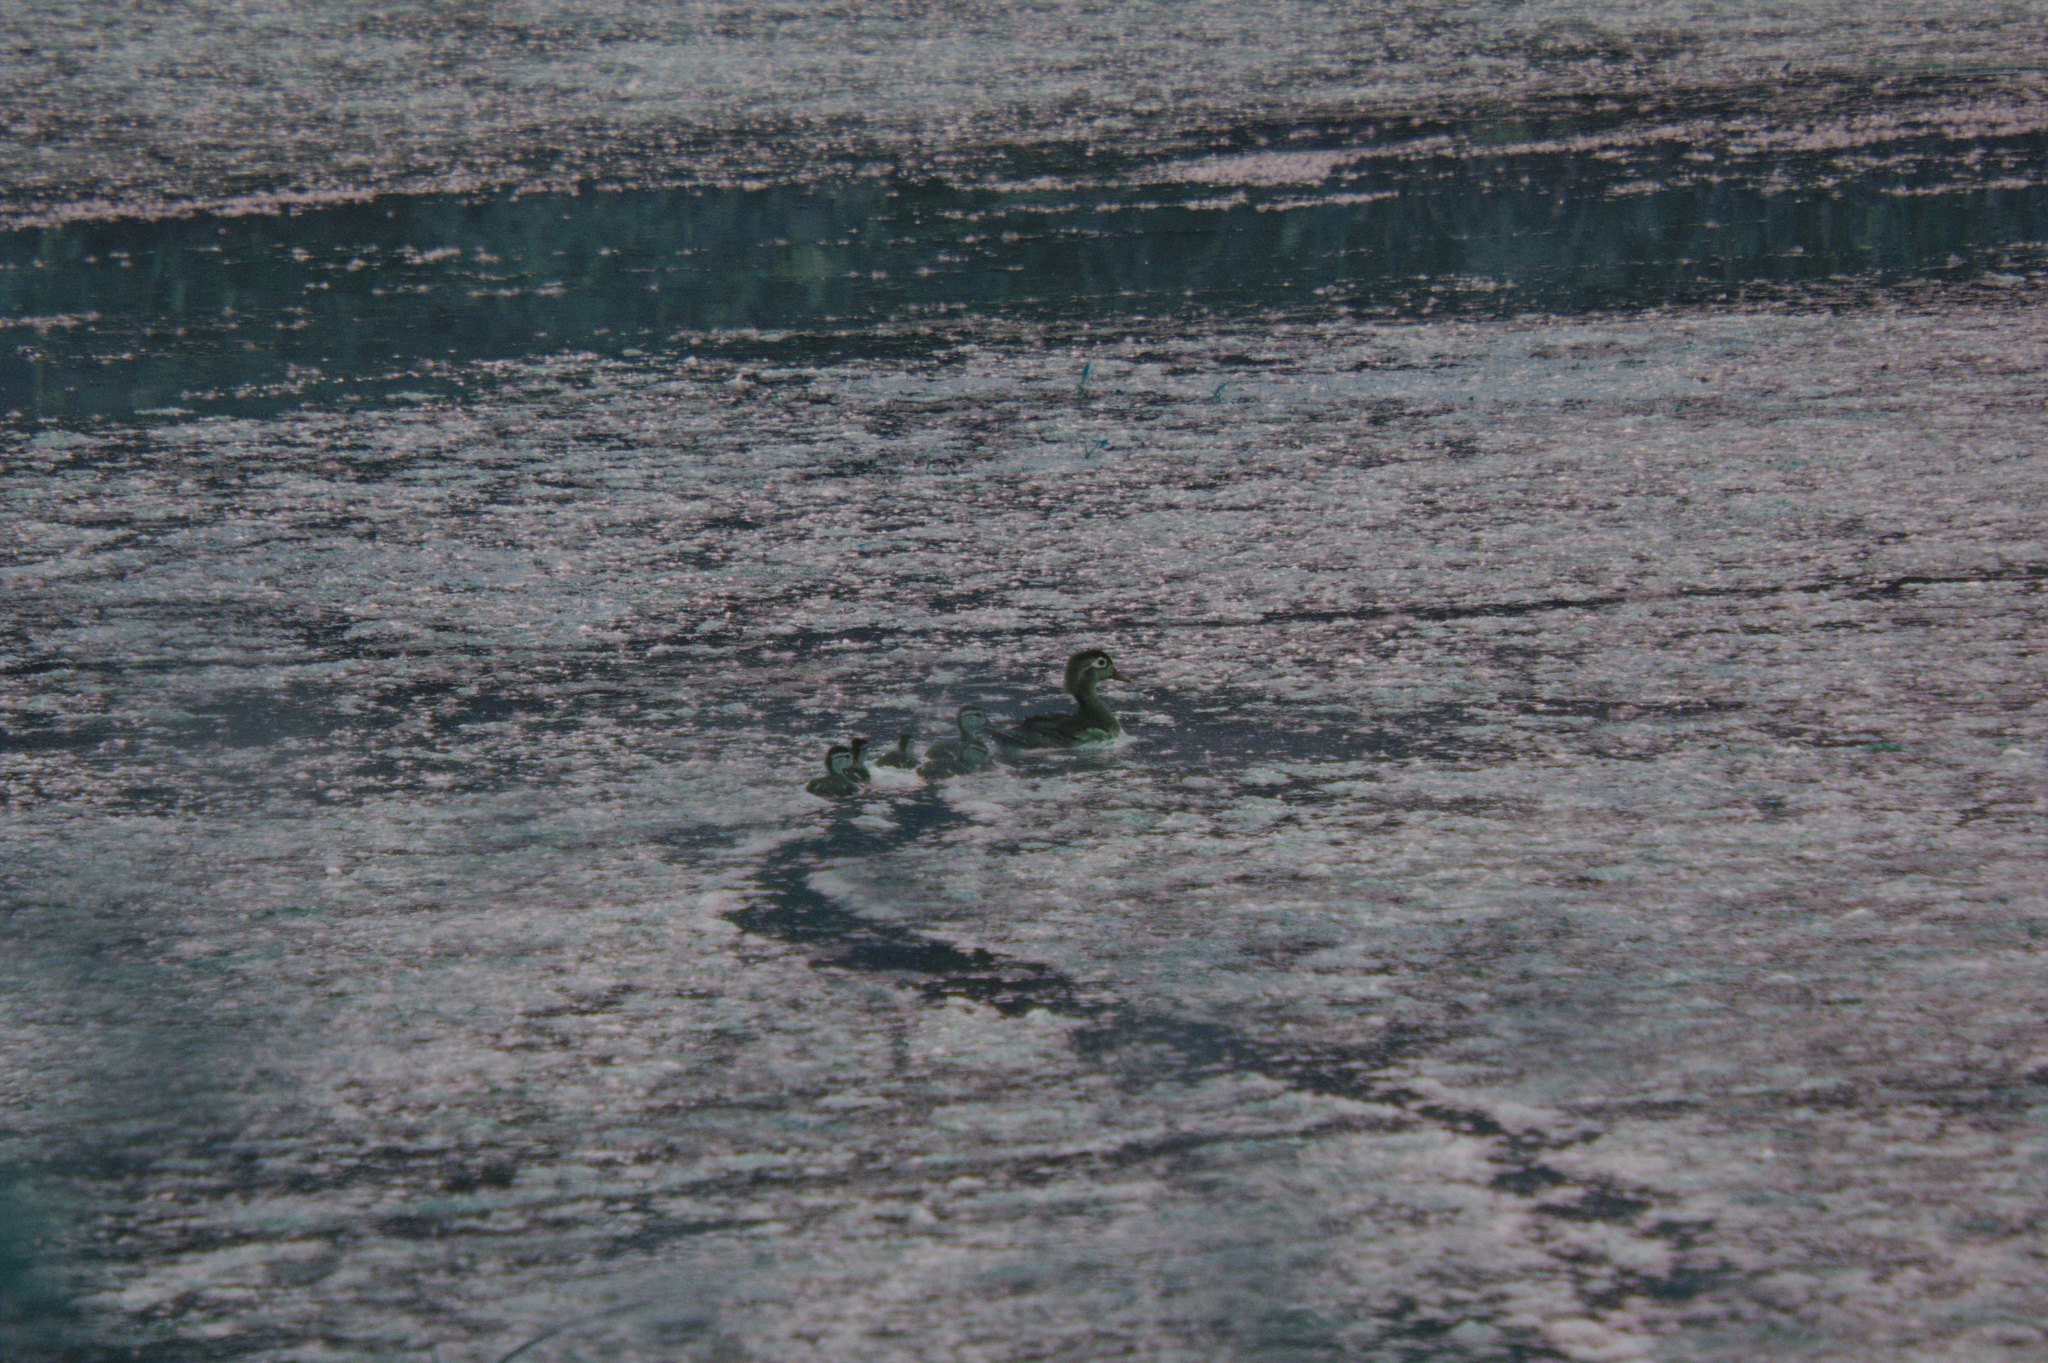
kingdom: Animalia
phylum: Chordata
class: Aves
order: Anseriformes
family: Anatidae
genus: Aix
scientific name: Aix sponsa
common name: Wood duck
